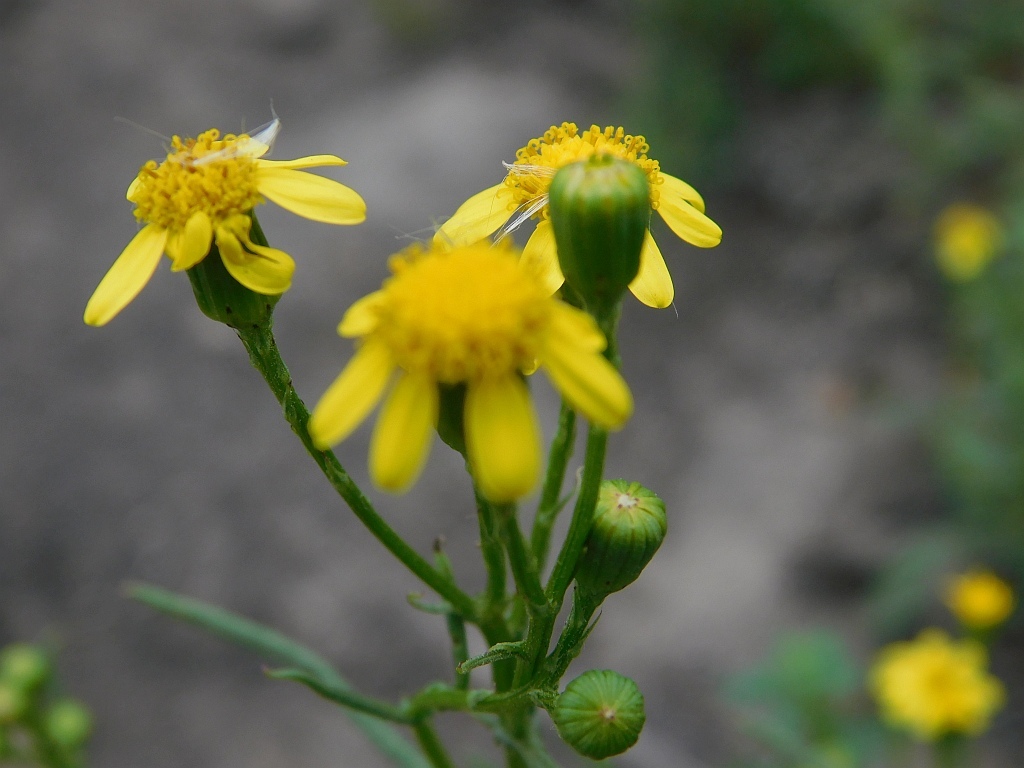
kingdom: Plantae
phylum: Tracheophyta
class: Magnoliopsida
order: Asterales
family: Asteraceae
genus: Senecio
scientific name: Senecio burchellii
